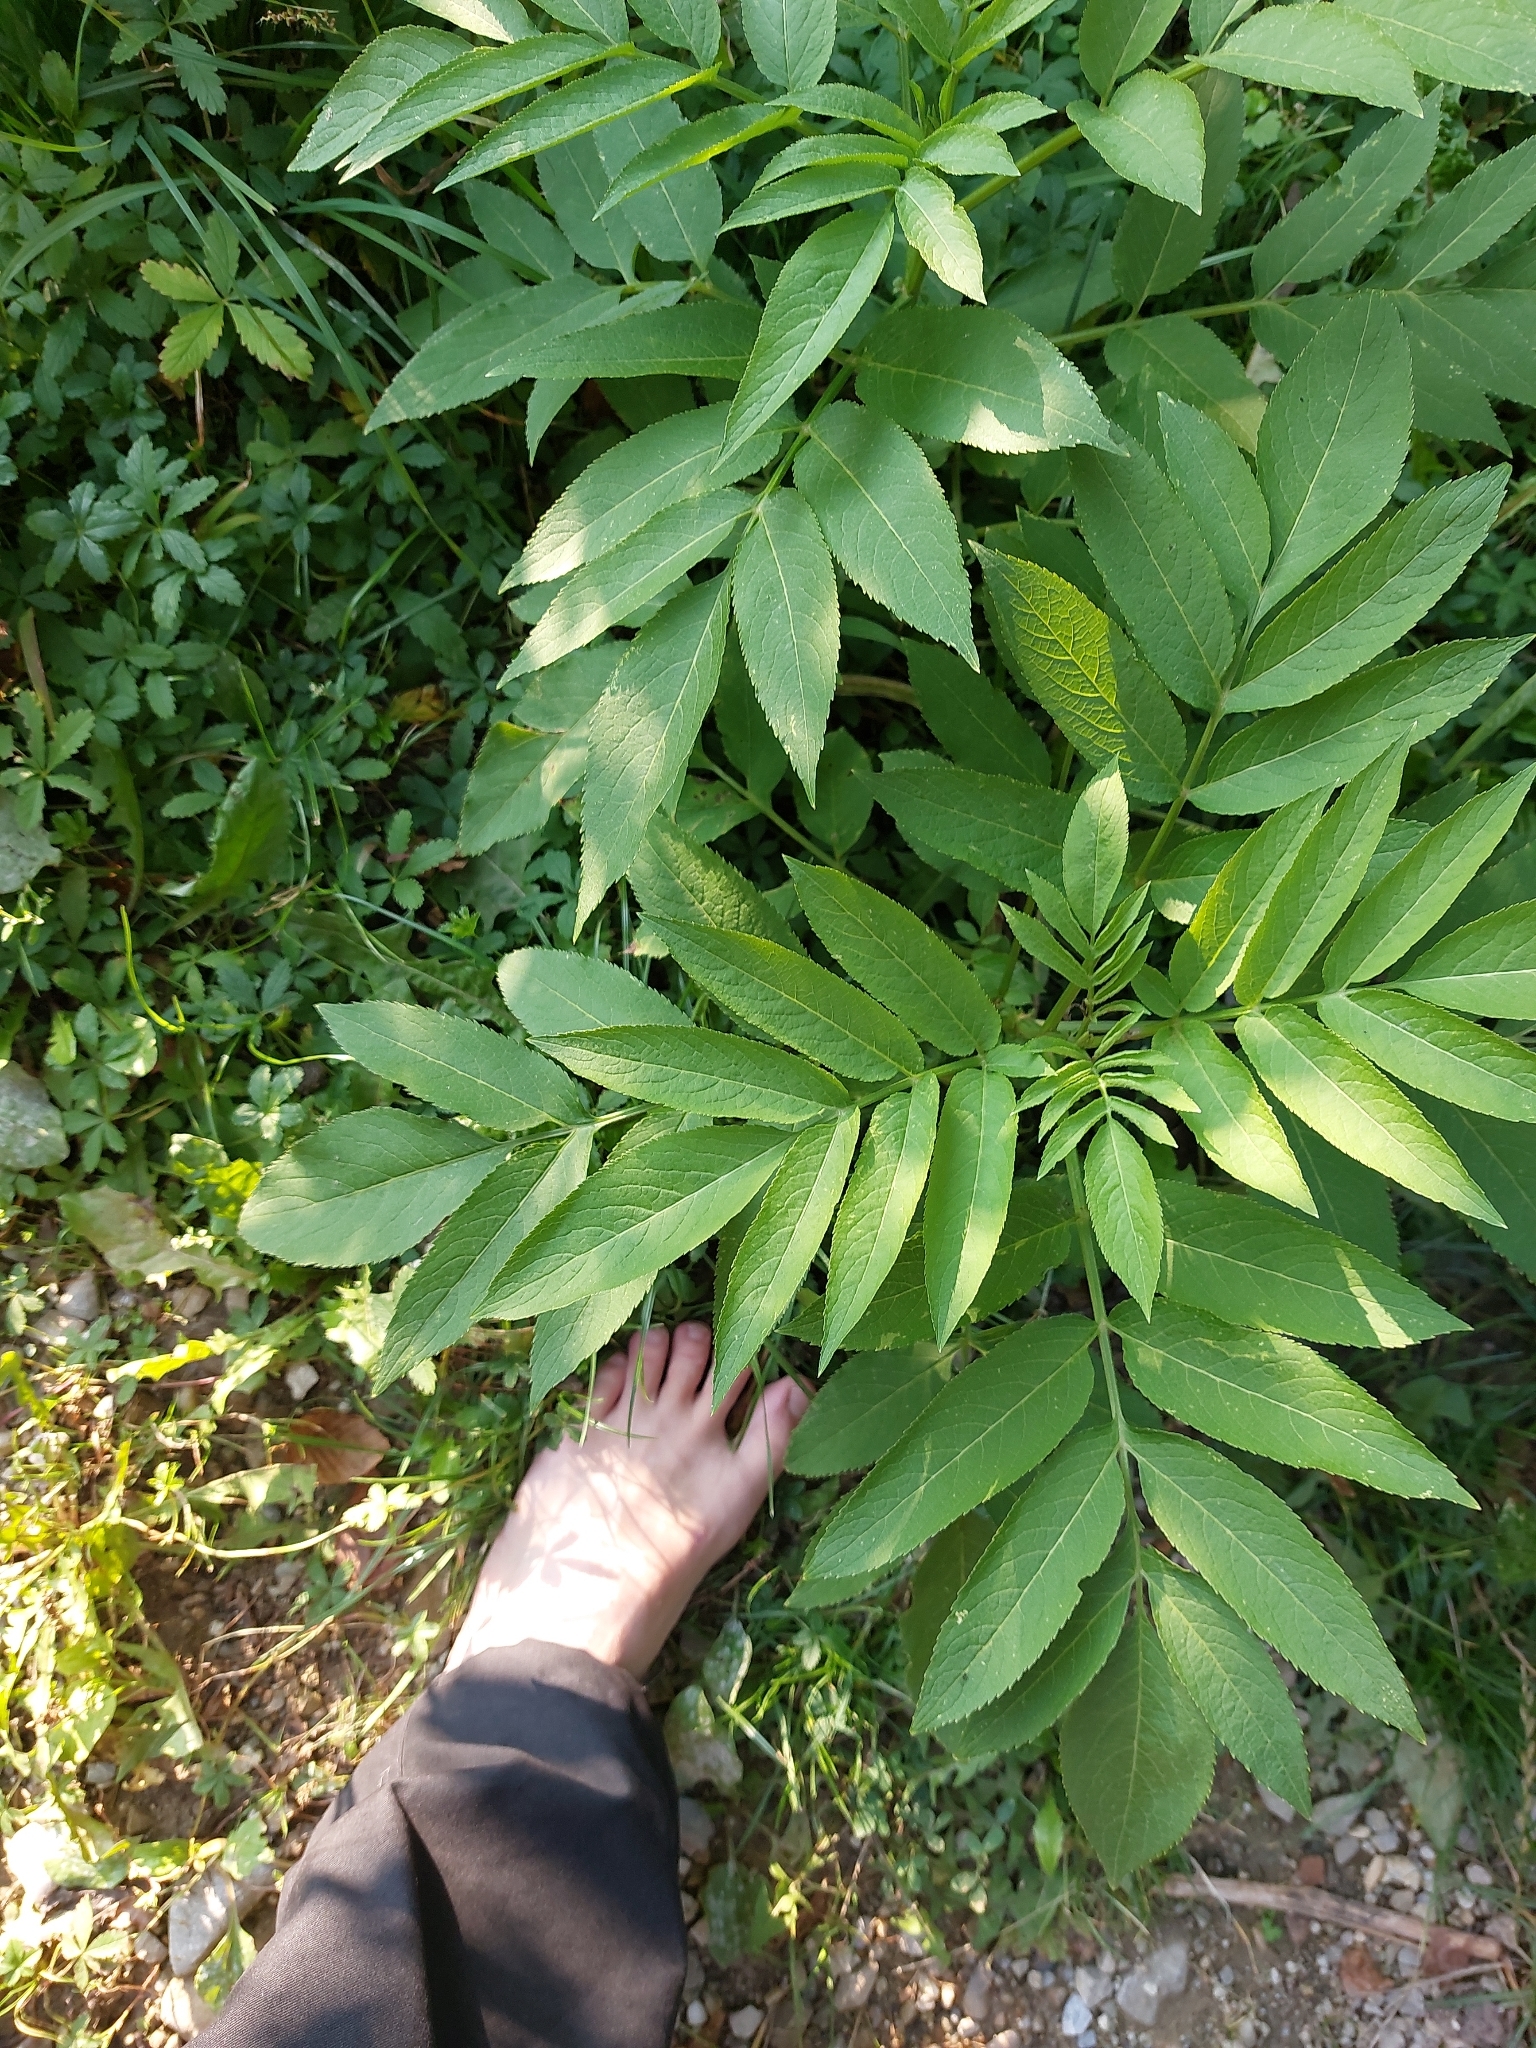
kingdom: Plantae
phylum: Tracheophyta
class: Magnoliopsida
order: Dipsacales
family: Viburnaceae
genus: Sambucus
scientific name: Sambucus ebulus
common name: Dwarf elder
